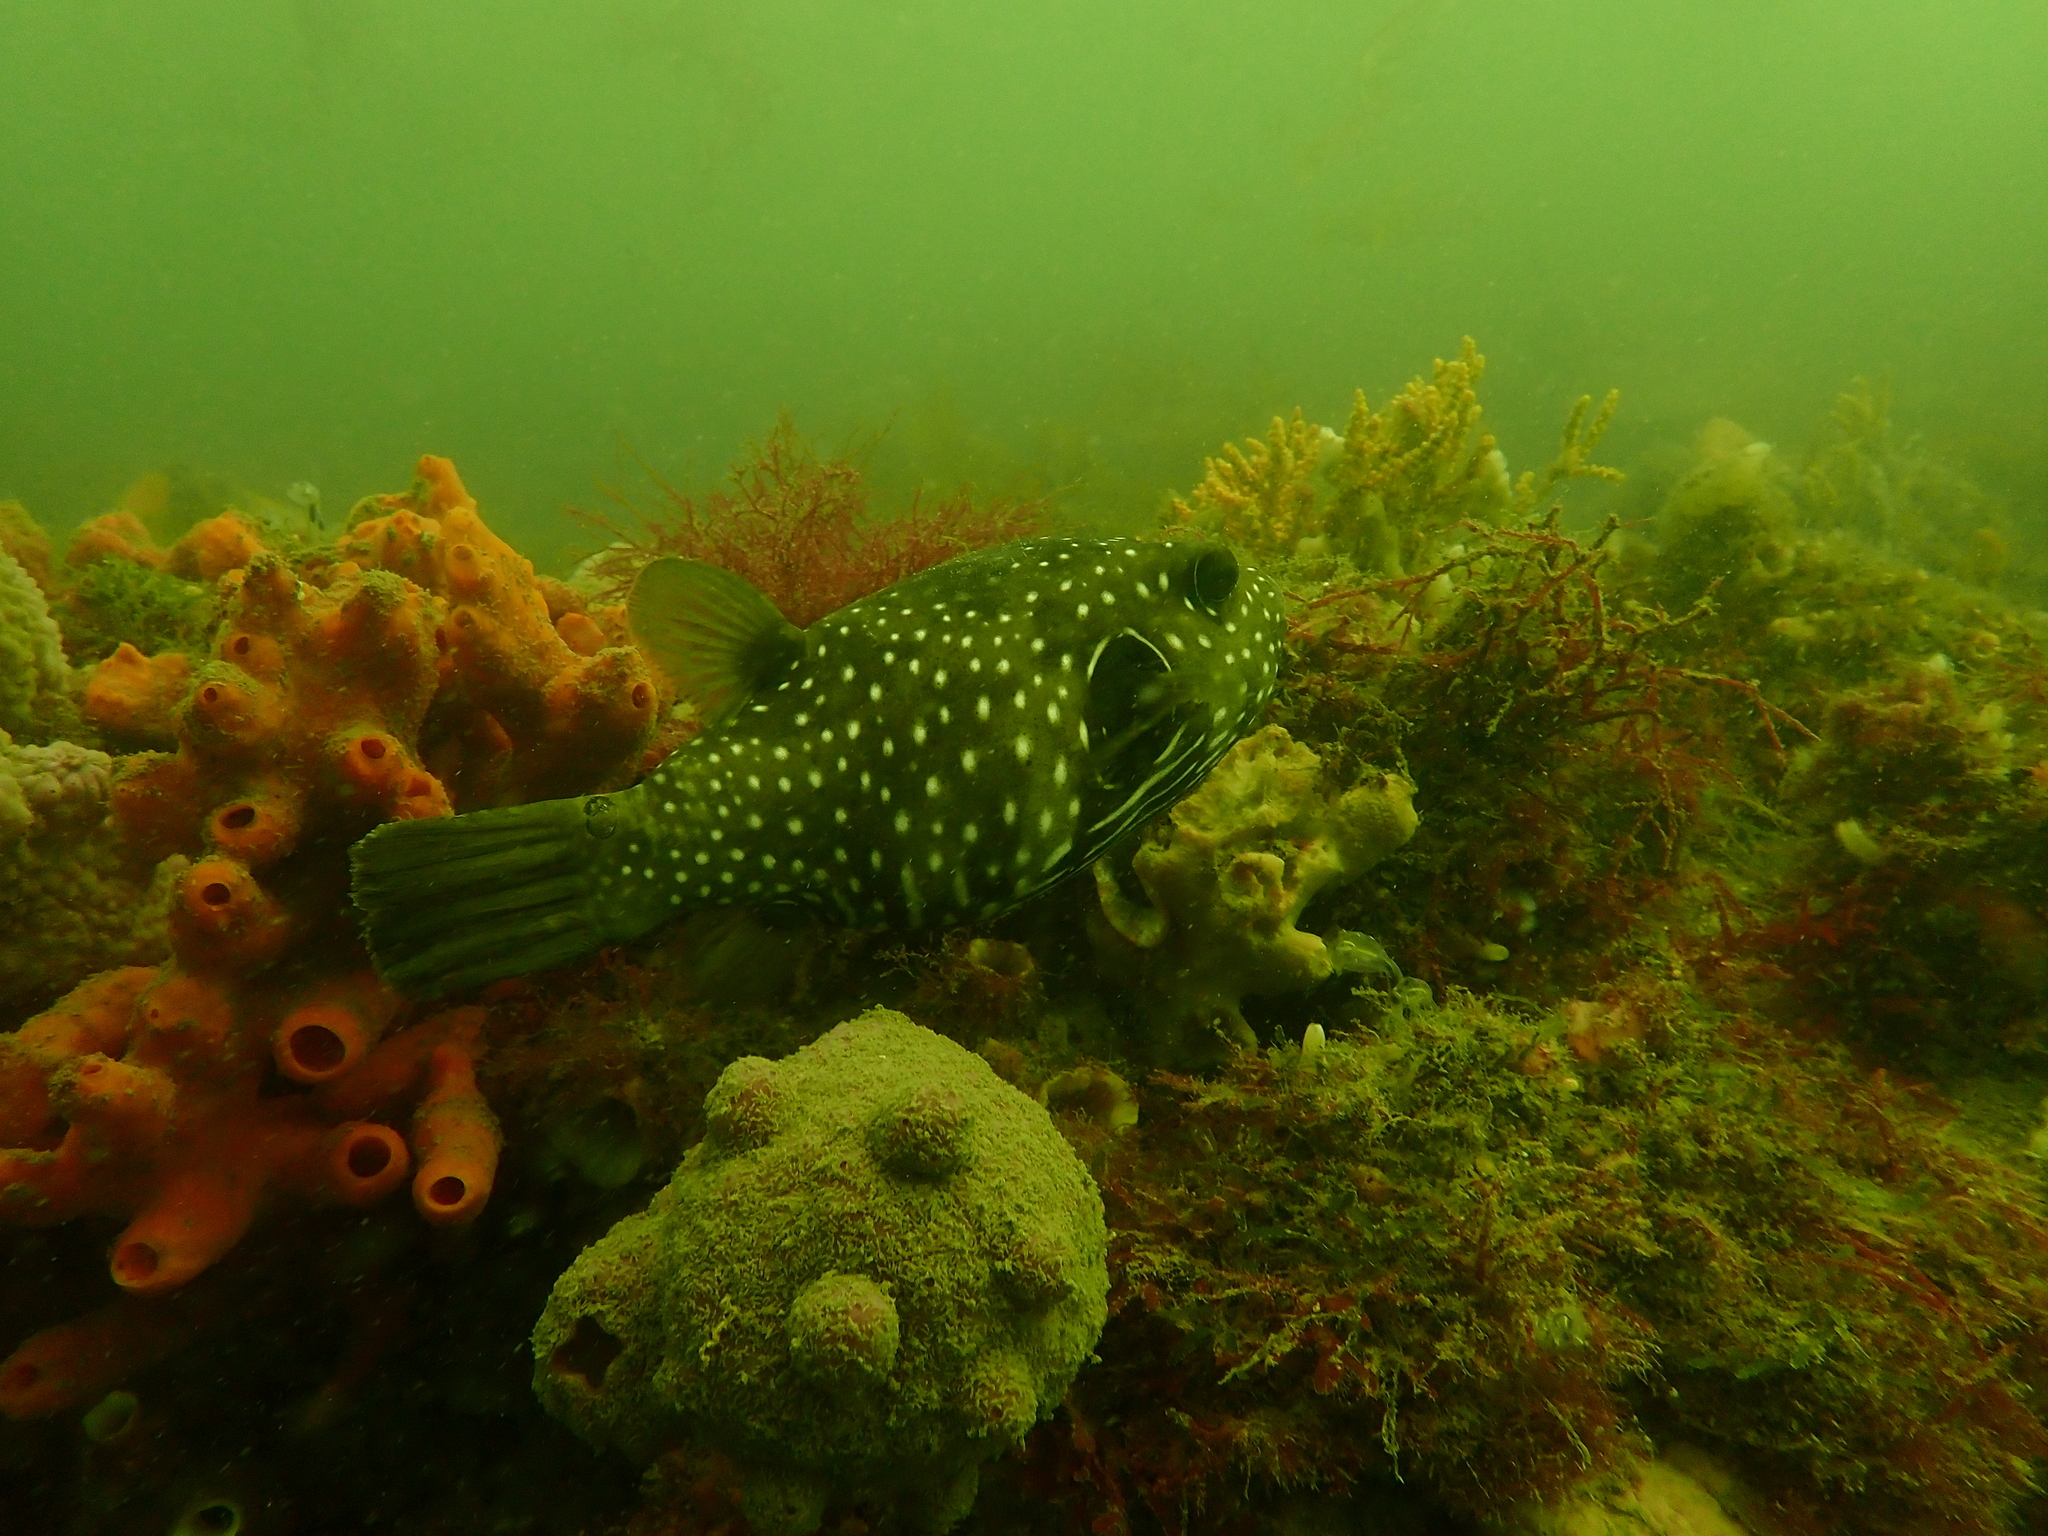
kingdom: Animalia
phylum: Chordata
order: Tetraodontiformes
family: Tetraodontidae
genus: Arothron
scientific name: Arothron hispidus
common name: Stripebelly puffer
